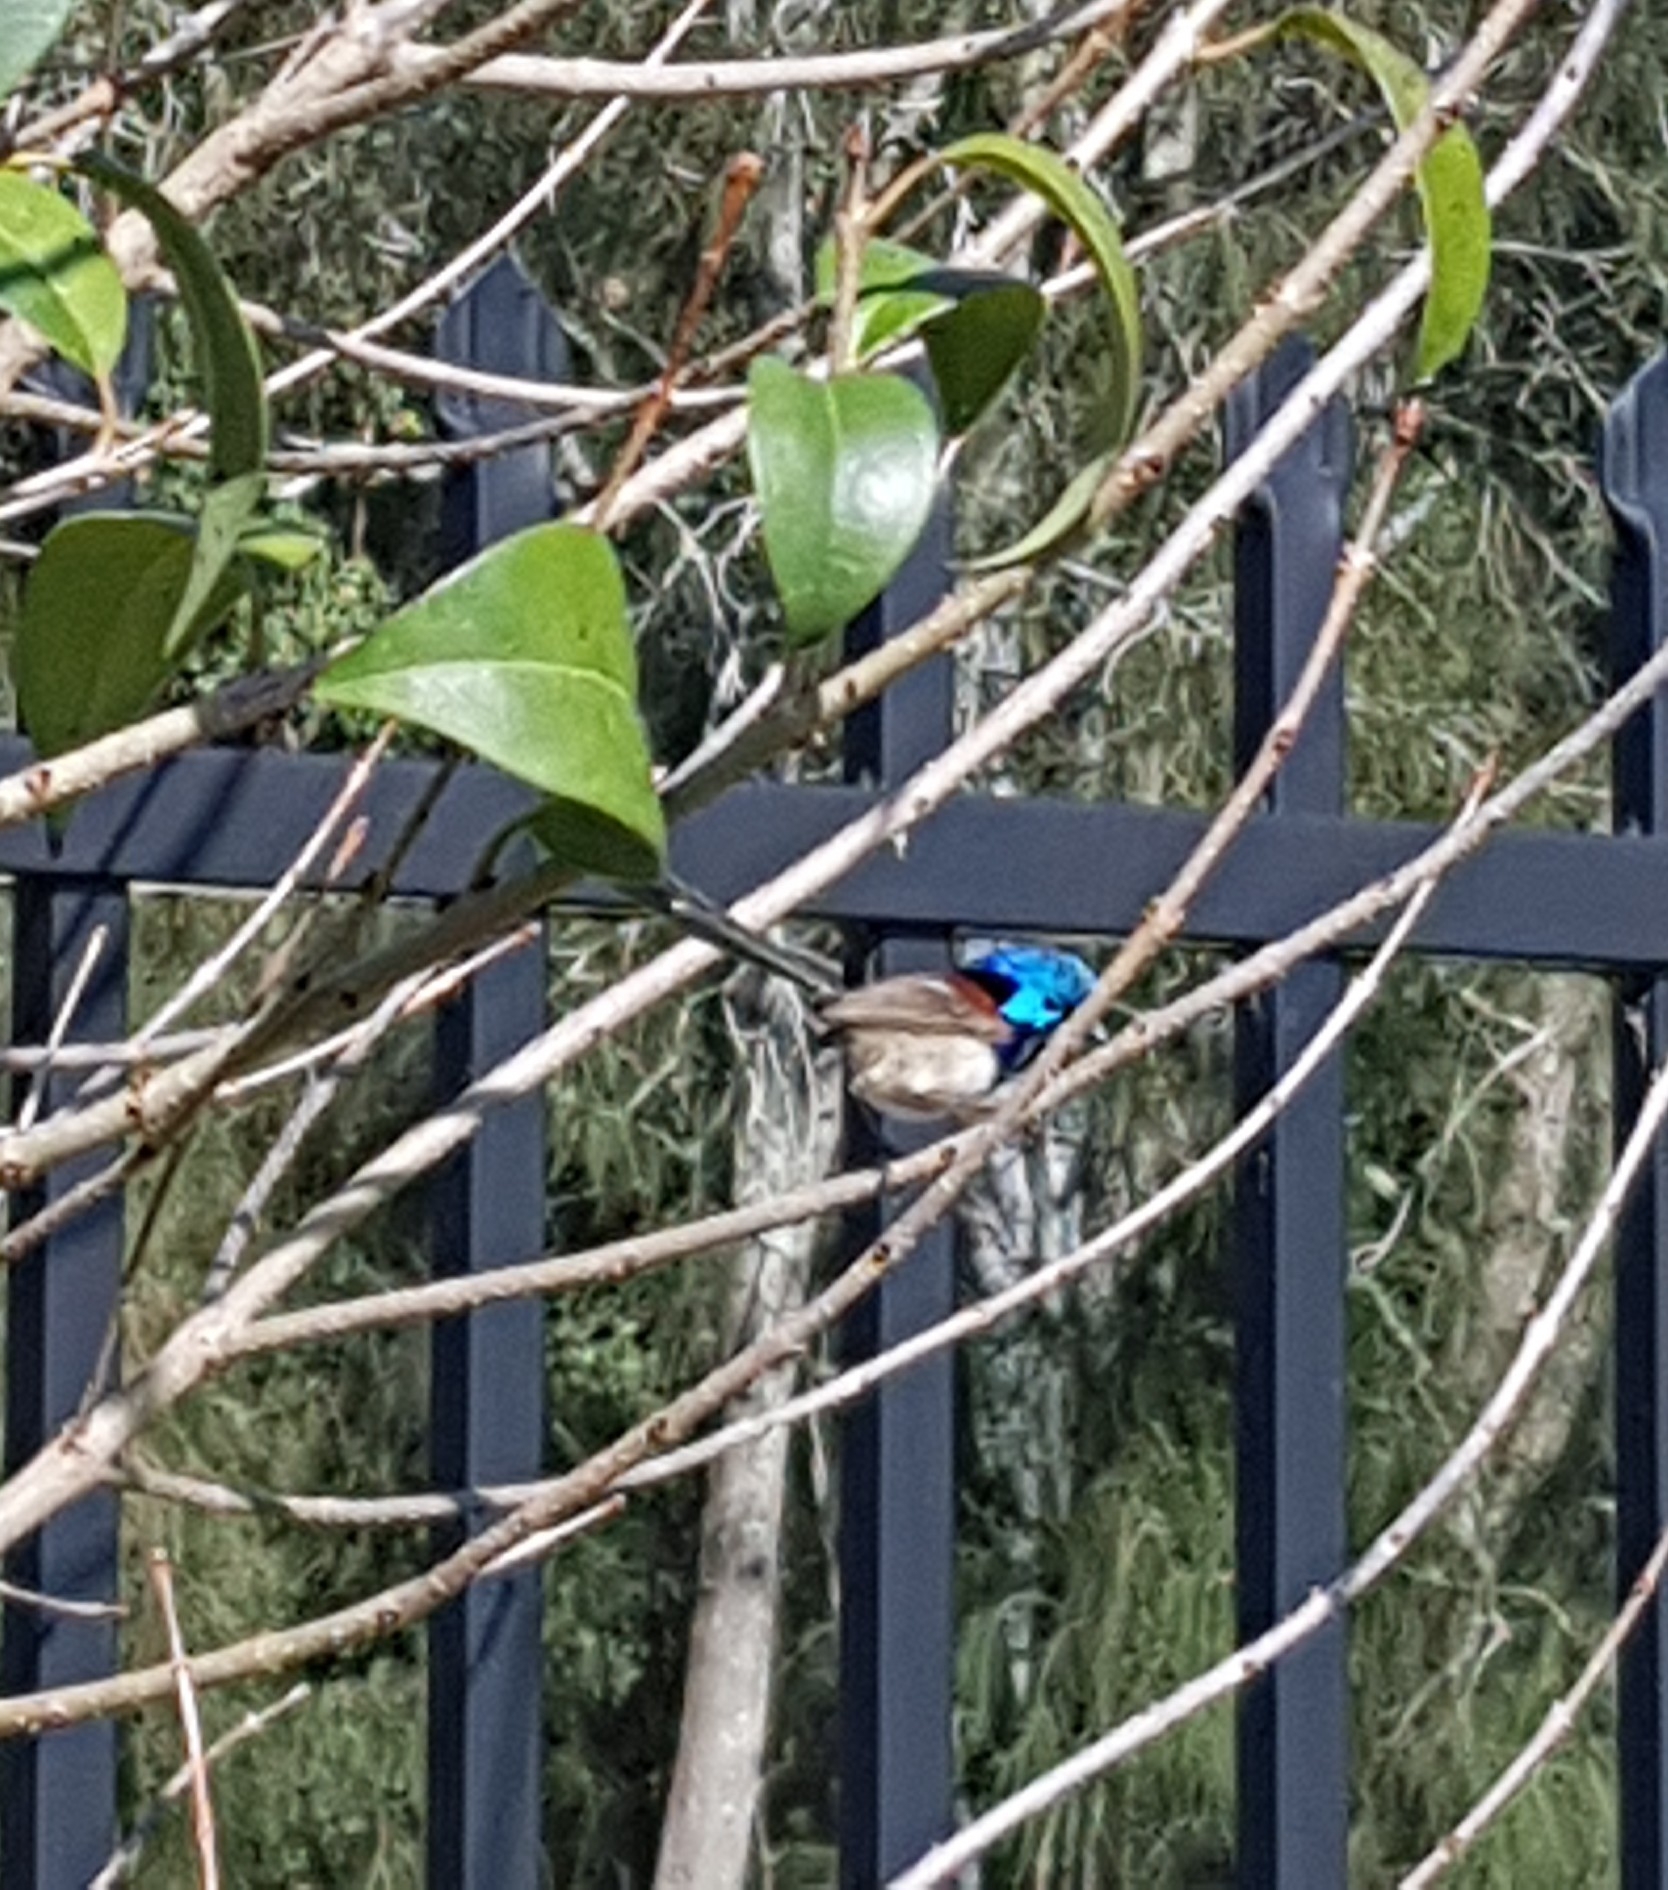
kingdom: Animalia
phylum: Chordata
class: Aves
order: Passeriformes
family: Maluridae
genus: Malurus
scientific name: Malurus lamberti
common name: Variegated fairywren
